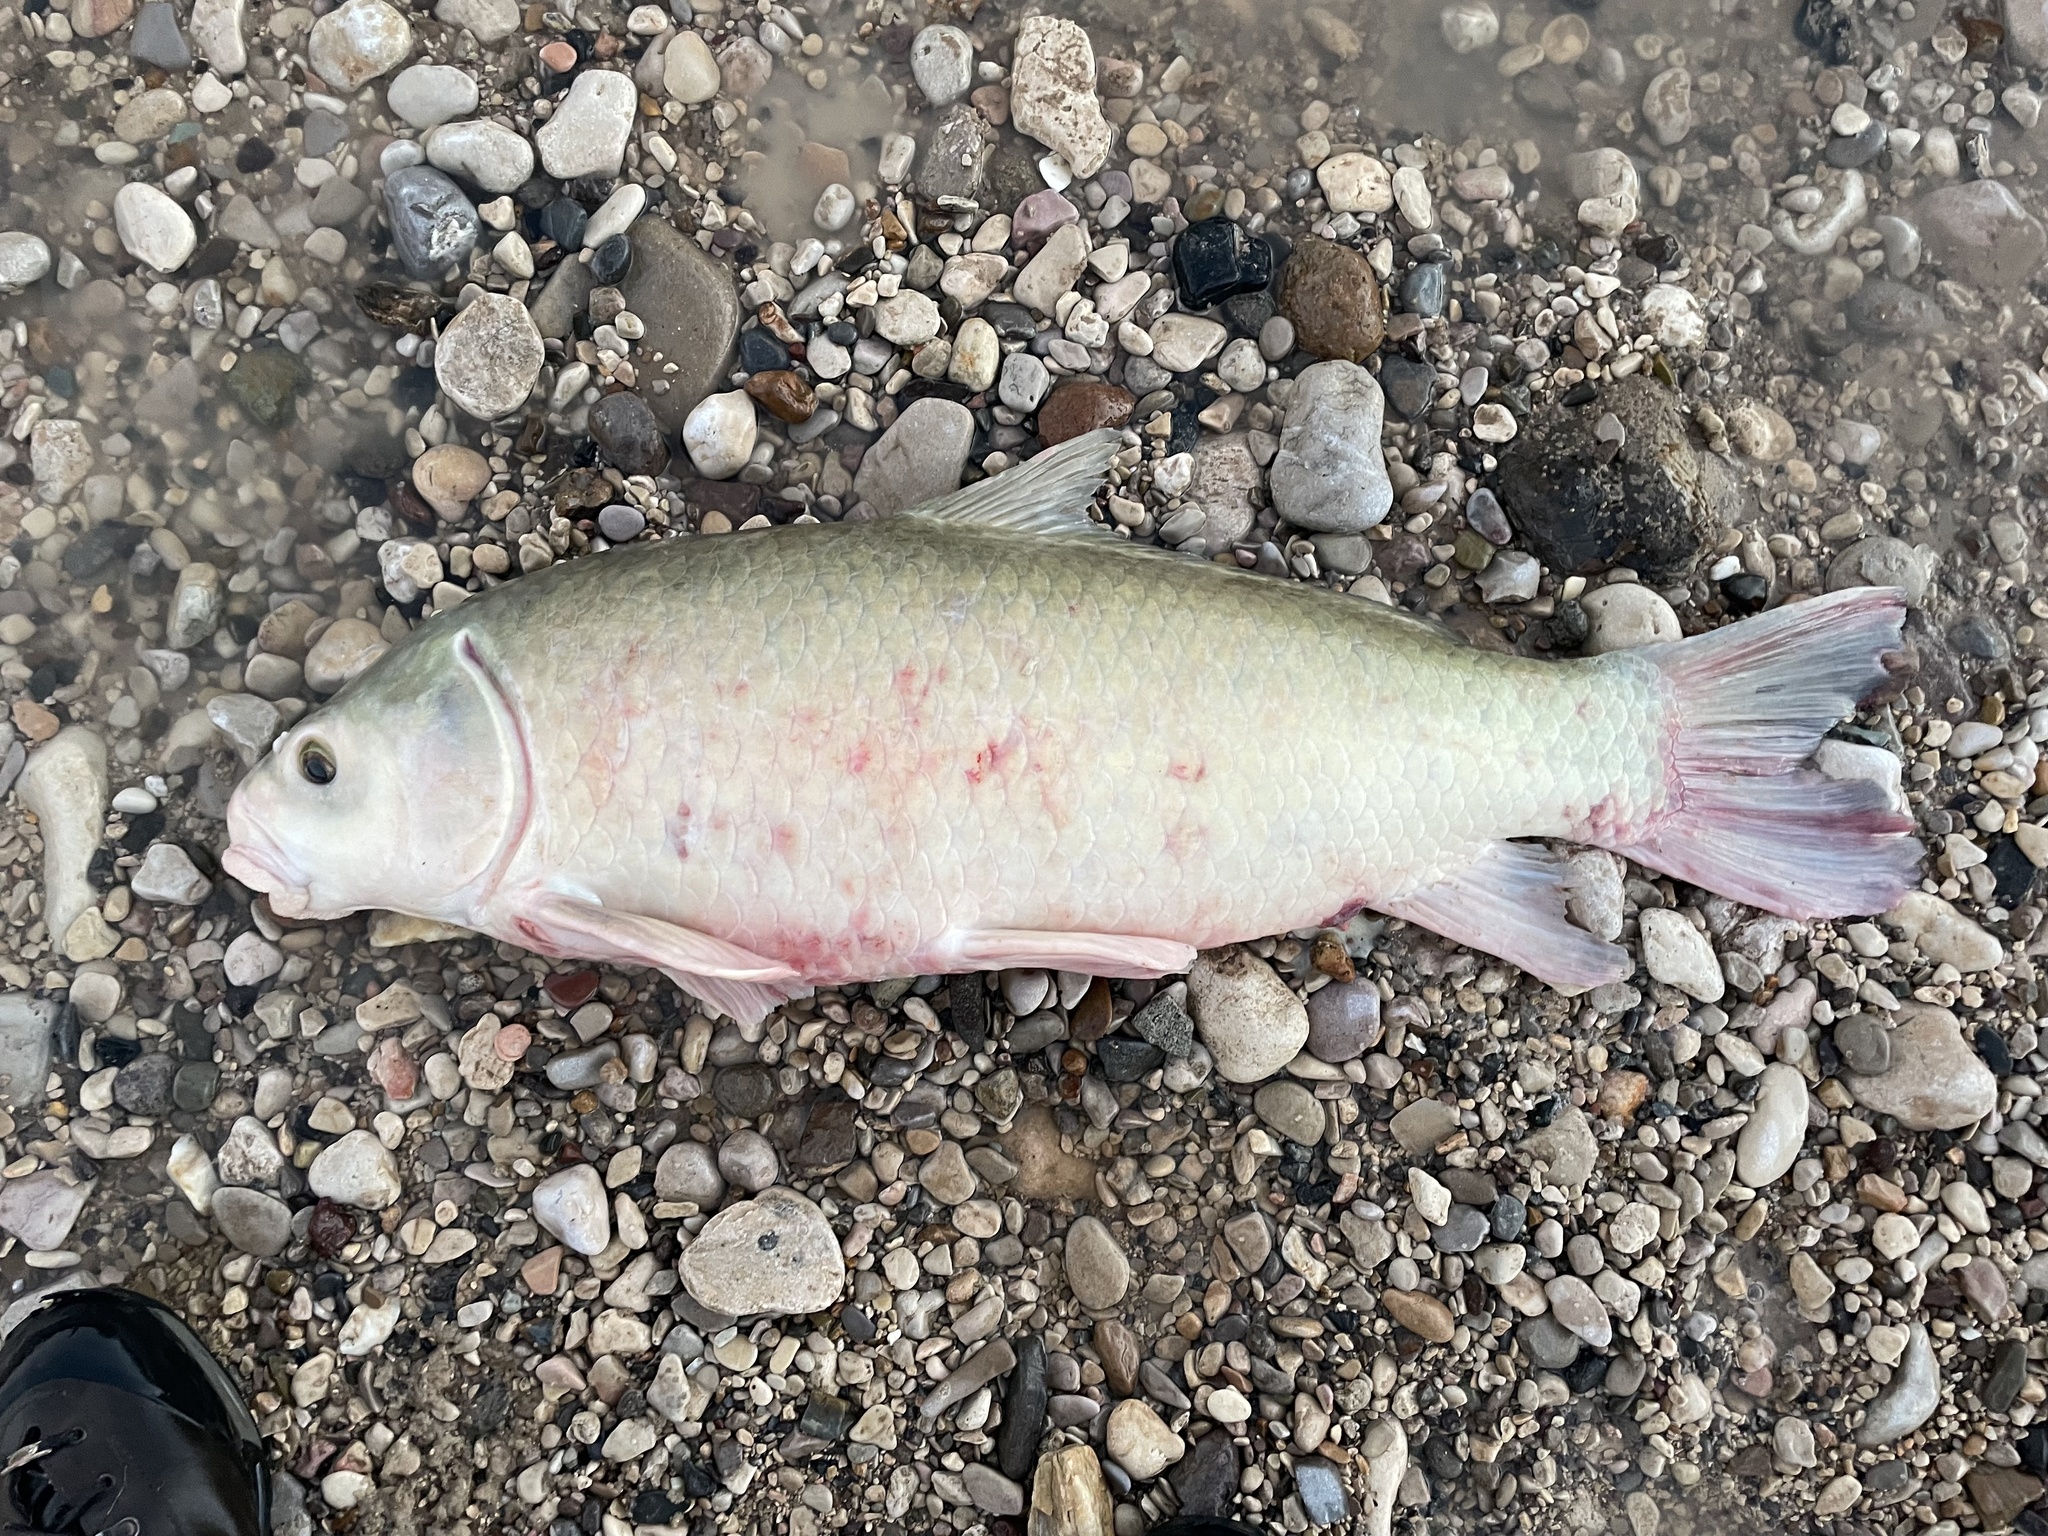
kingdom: Animalia
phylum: Chordata
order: Cypriniformes
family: Catostomidae
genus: Ictiobus
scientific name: Ictiobus bubalus
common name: Smallmouth buffalo
